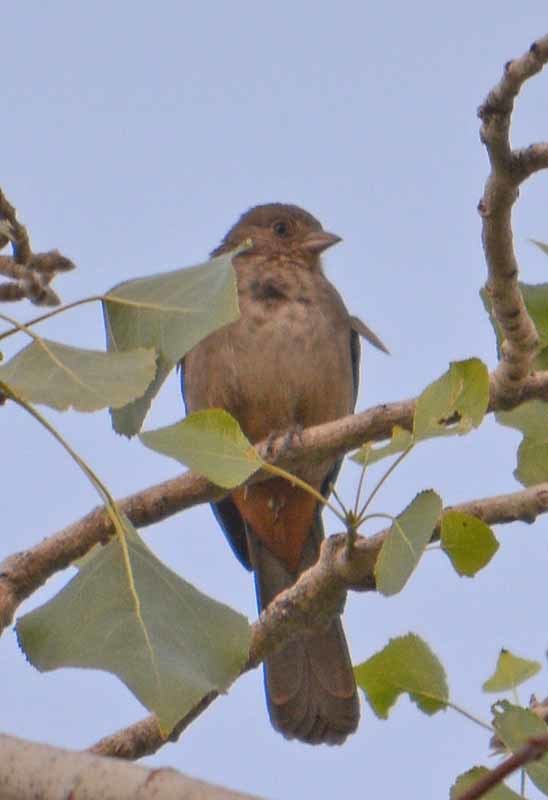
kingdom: Animalia
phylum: Chordata
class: Aves
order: Passeriformes
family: Passerellidae
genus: Melozone
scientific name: Melozone fusca
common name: Canyon towhee
